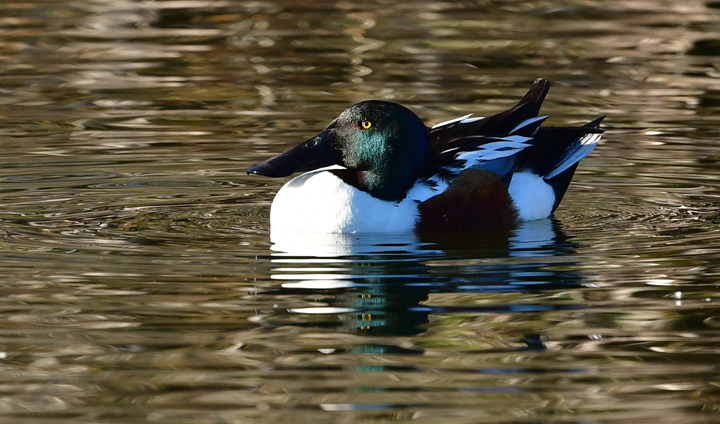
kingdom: Animalia
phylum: Chordata
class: Aves
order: Anseriformes
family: Anatidae
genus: Spatula
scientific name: Spatula clypeata
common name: Northern shoveler
